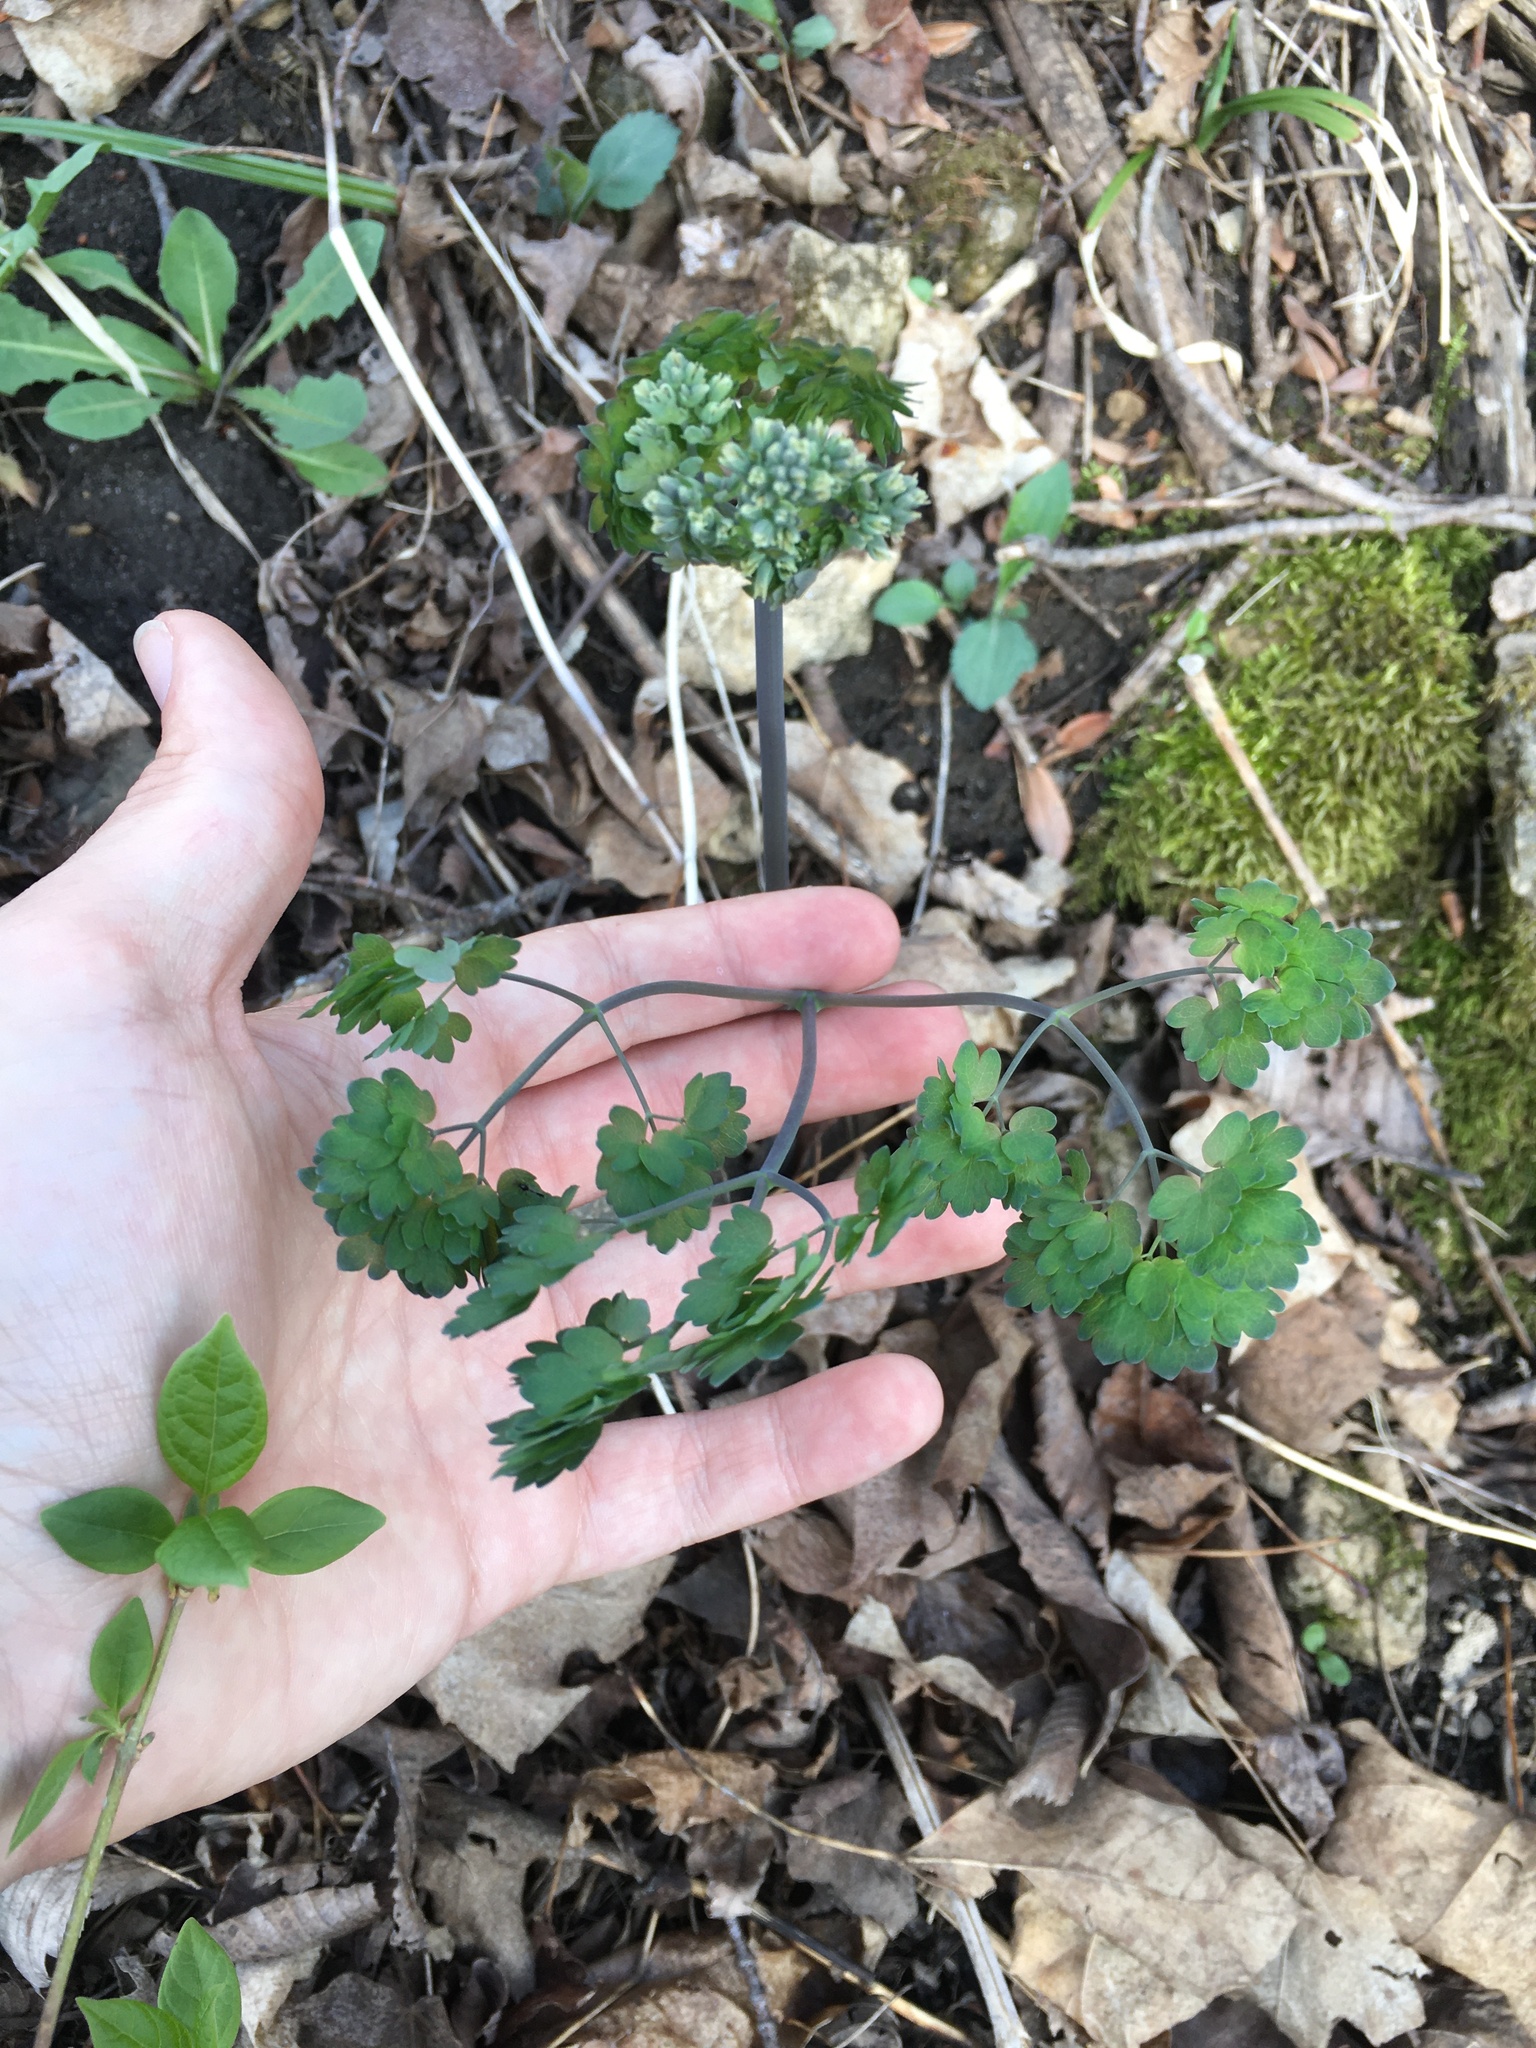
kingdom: Plantae
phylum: Tracheophyta
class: Magnoliopsida
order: Ranunculales
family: Ranunculaceae
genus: Thalictrum
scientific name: Thalictrum dioicum
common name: Early meadow-rue
